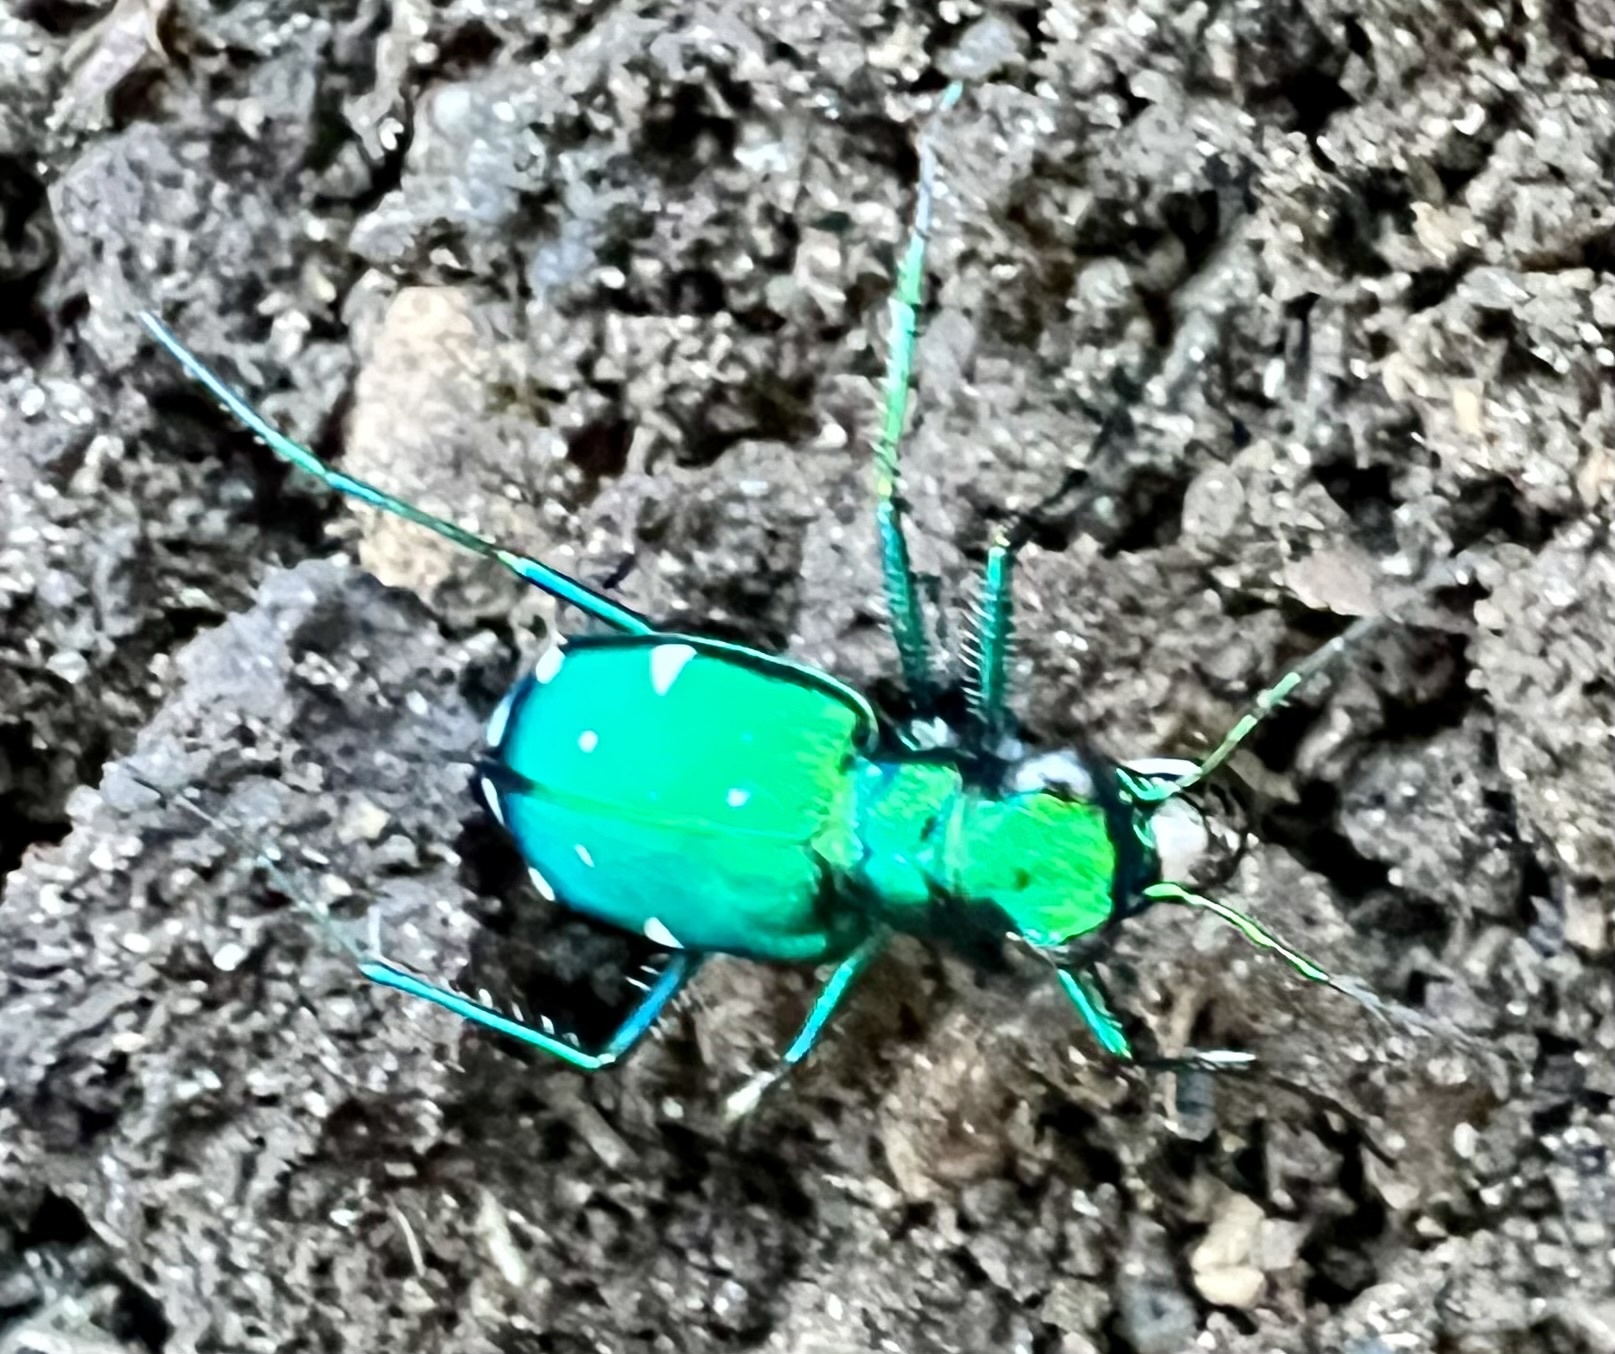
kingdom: Animalia
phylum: Arthropoda
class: Insecta
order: Coleoptera
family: Carabidae
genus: Cicindela
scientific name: Cicindela sexguttata
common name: Six-spotted tiger beetle
